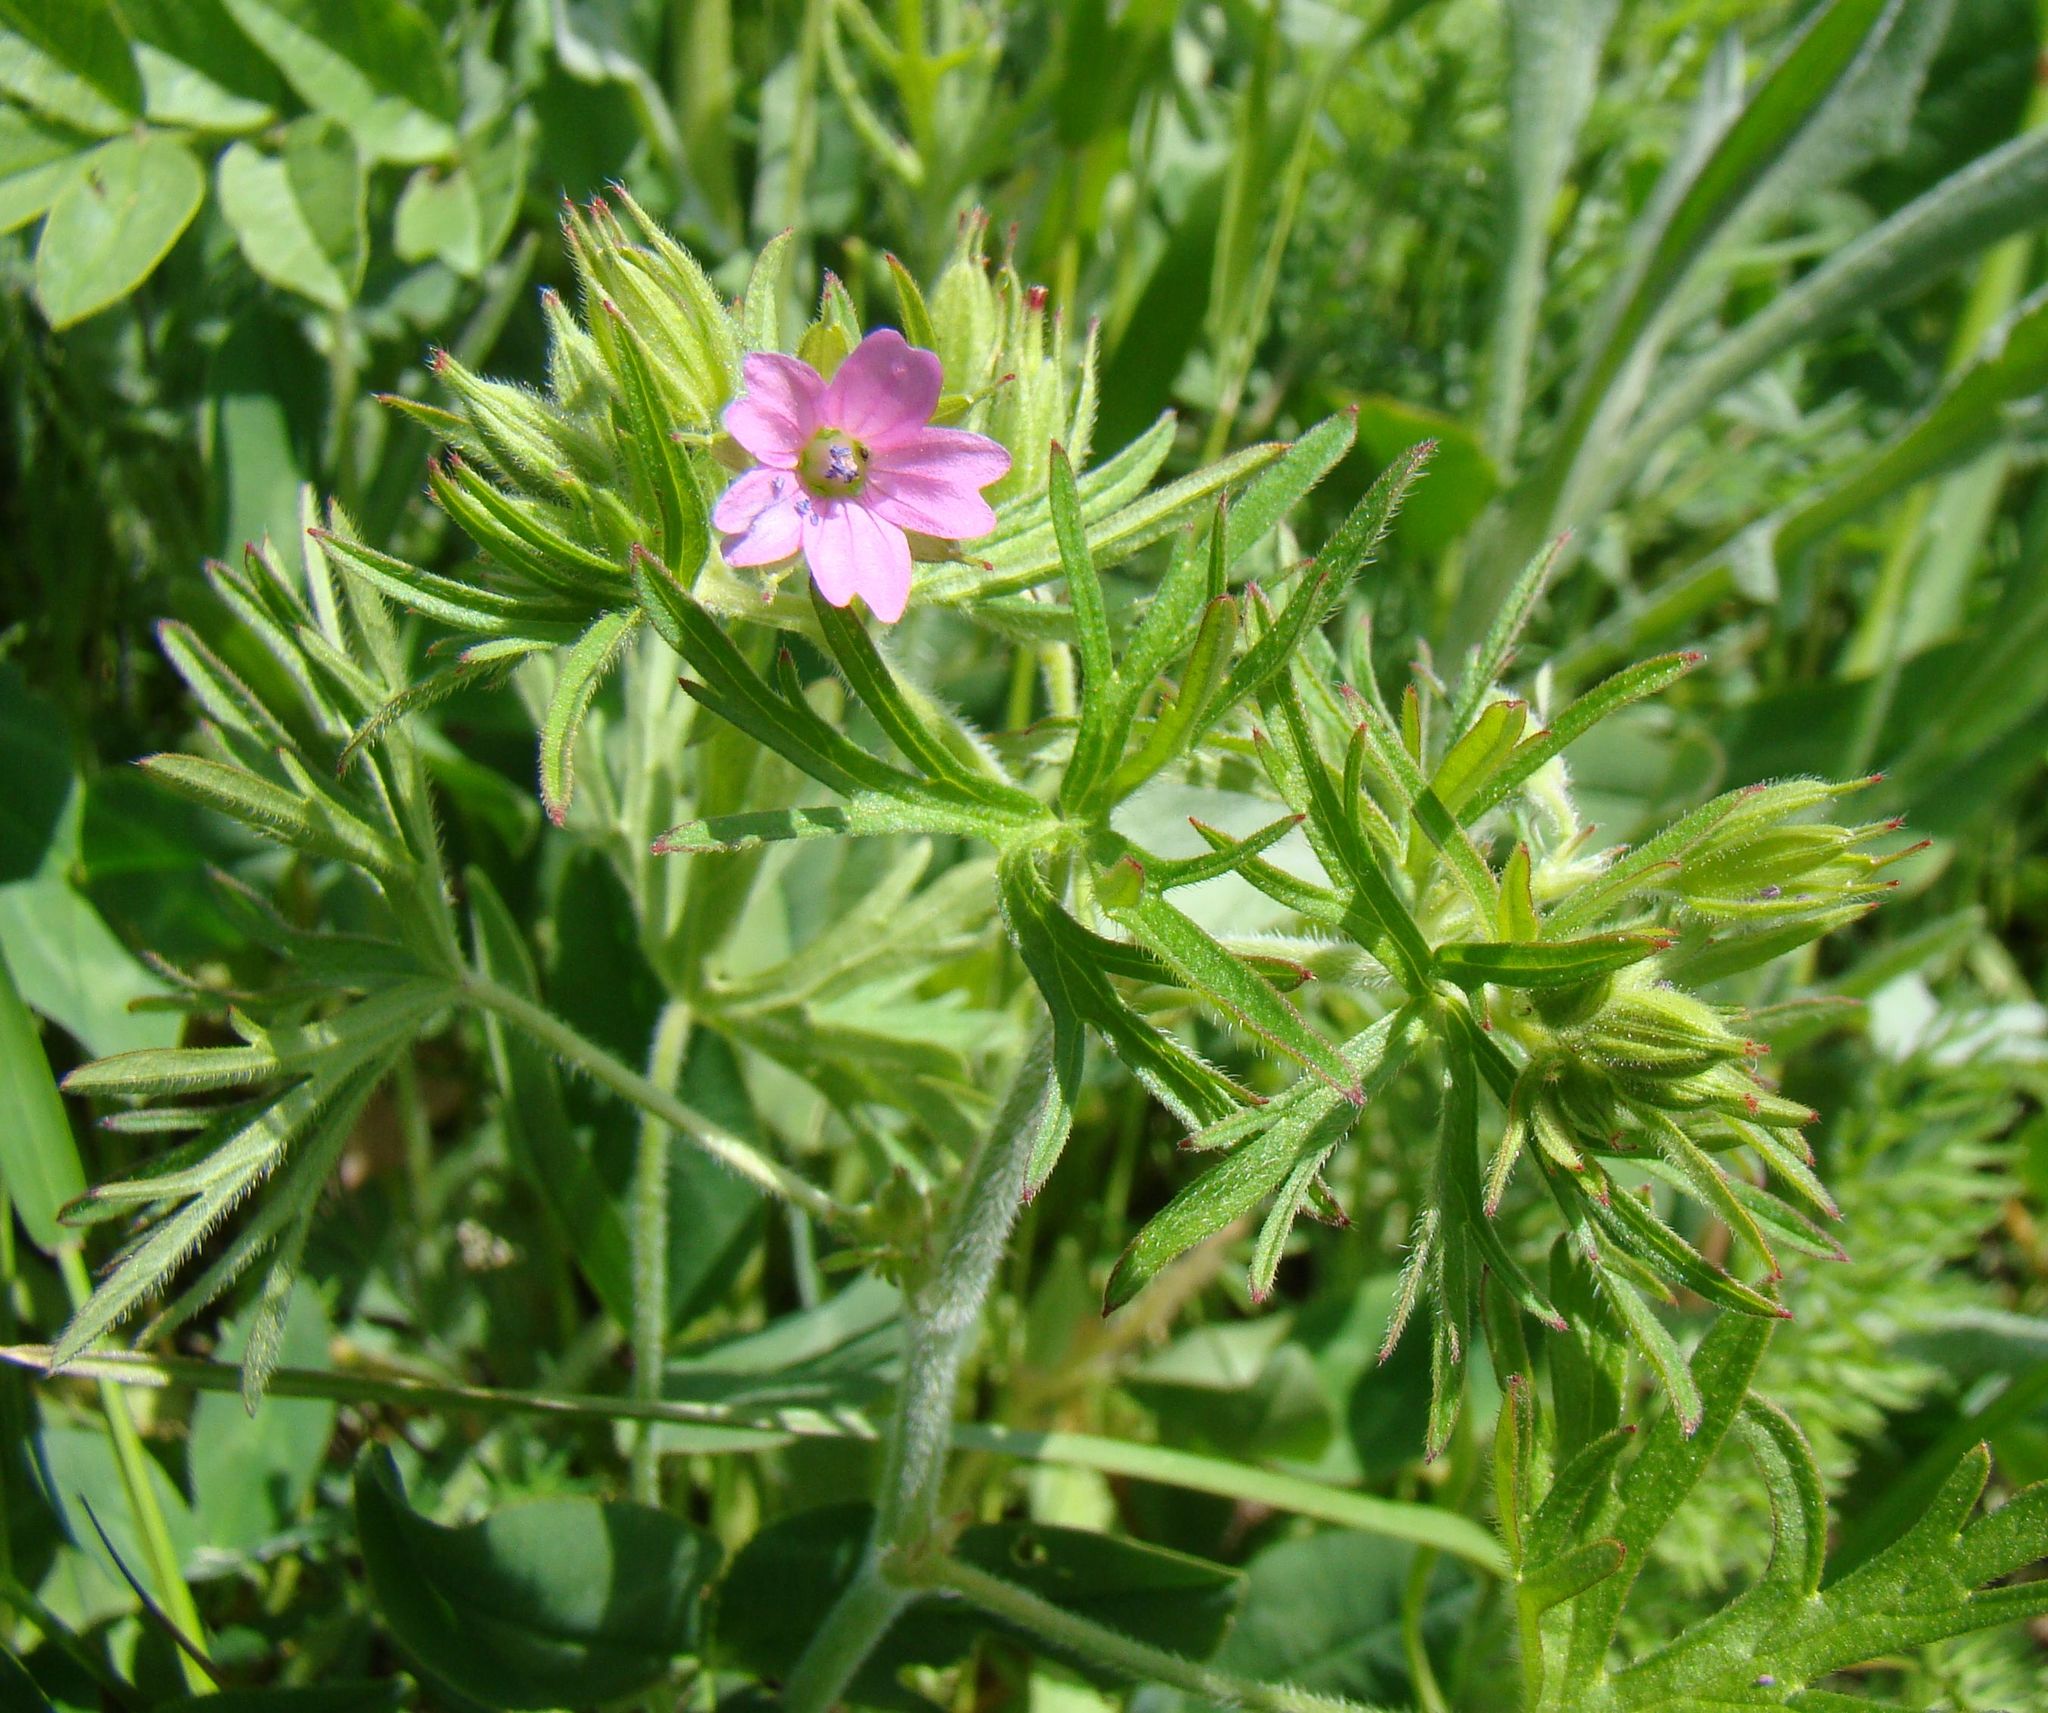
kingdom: Plantae
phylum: Tracheophyta
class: Magnoliopsida
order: Geraniales
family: Geraniaceae
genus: Geranium
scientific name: Geranium dissectum
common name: Cut-leaved crane's-bill
